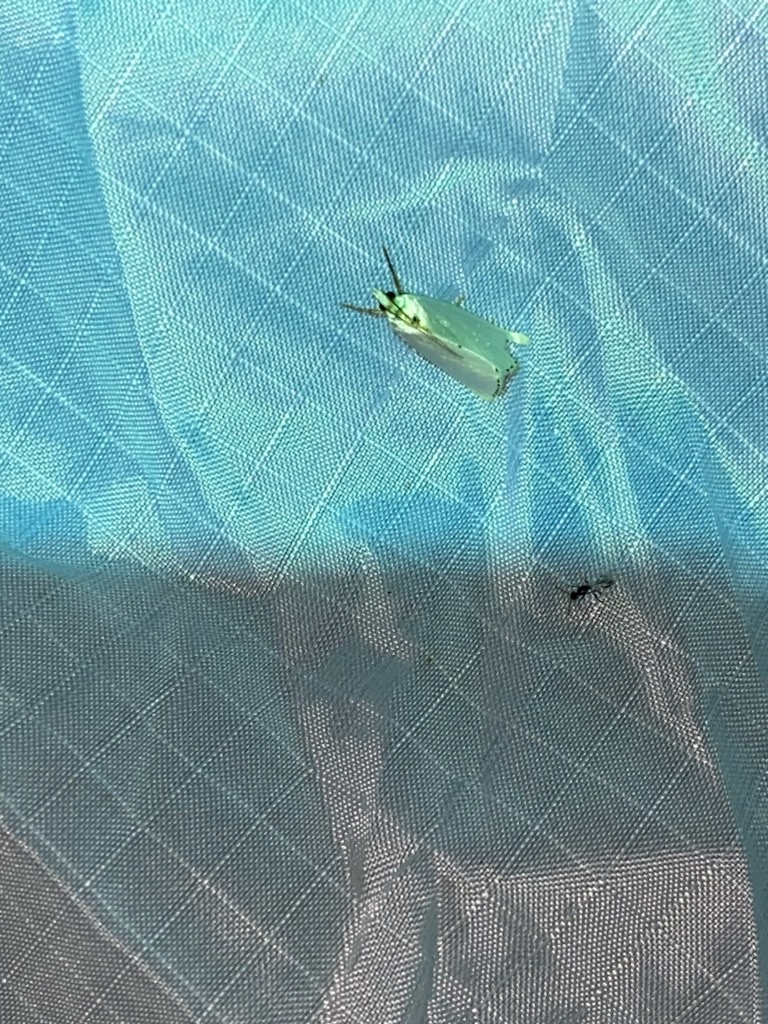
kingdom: Animalia
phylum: Arthropoda
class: Insecta
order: Lepidoptera
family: Crambidae
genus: Argyria
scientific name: Argyria nivalis
